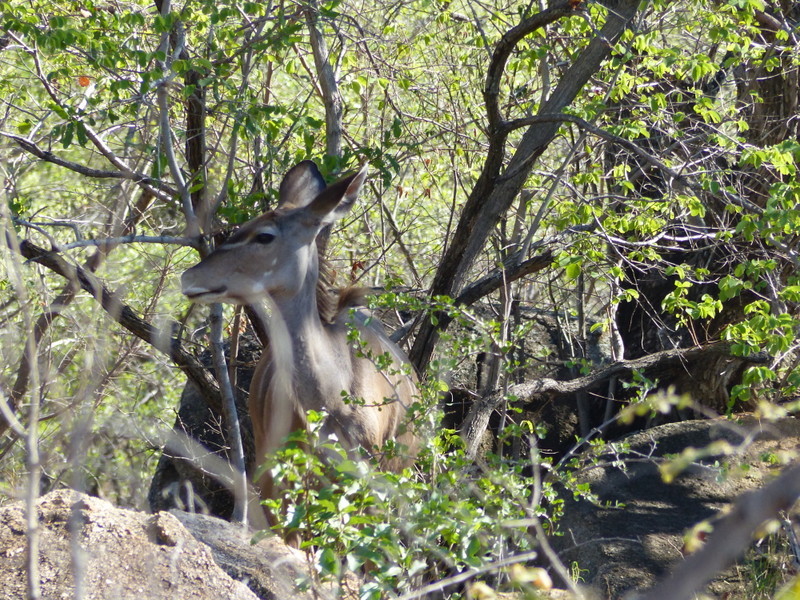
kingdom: Animalia
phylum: Chordata
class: Mammalia
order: Artiodactyla
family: Bovidae
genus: Tragelaphus
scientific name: Tragelaphus strepsiceros
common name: Greater kudu
